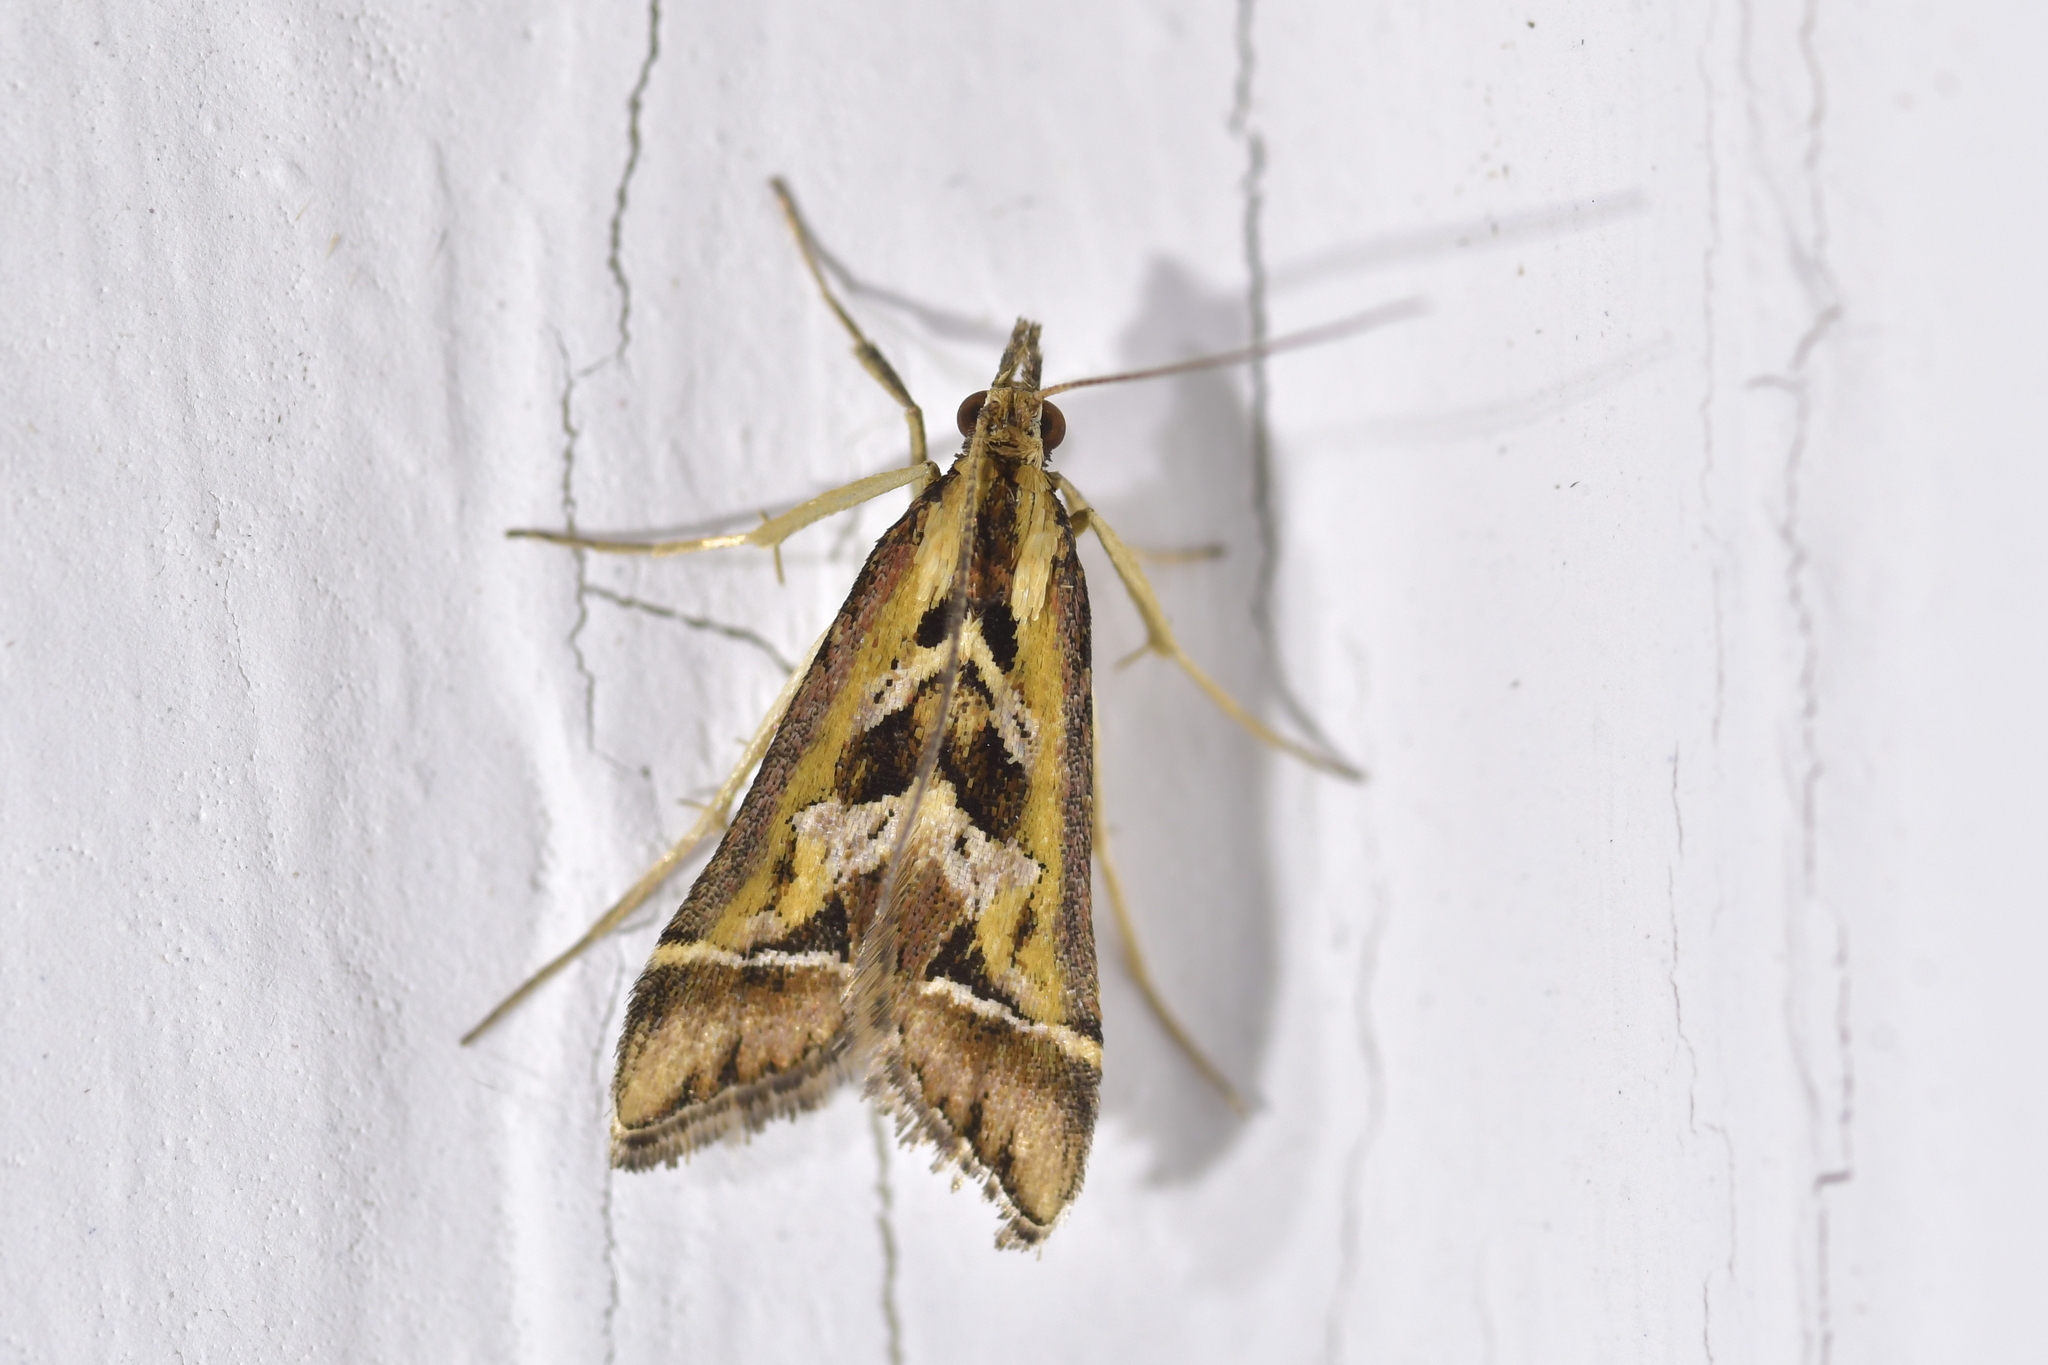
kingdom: Animalia
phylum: Arthropoda
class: Insecta
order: Lepidoptera
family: Crambidae
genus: Diasemia
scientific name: Diasemia grammalis
